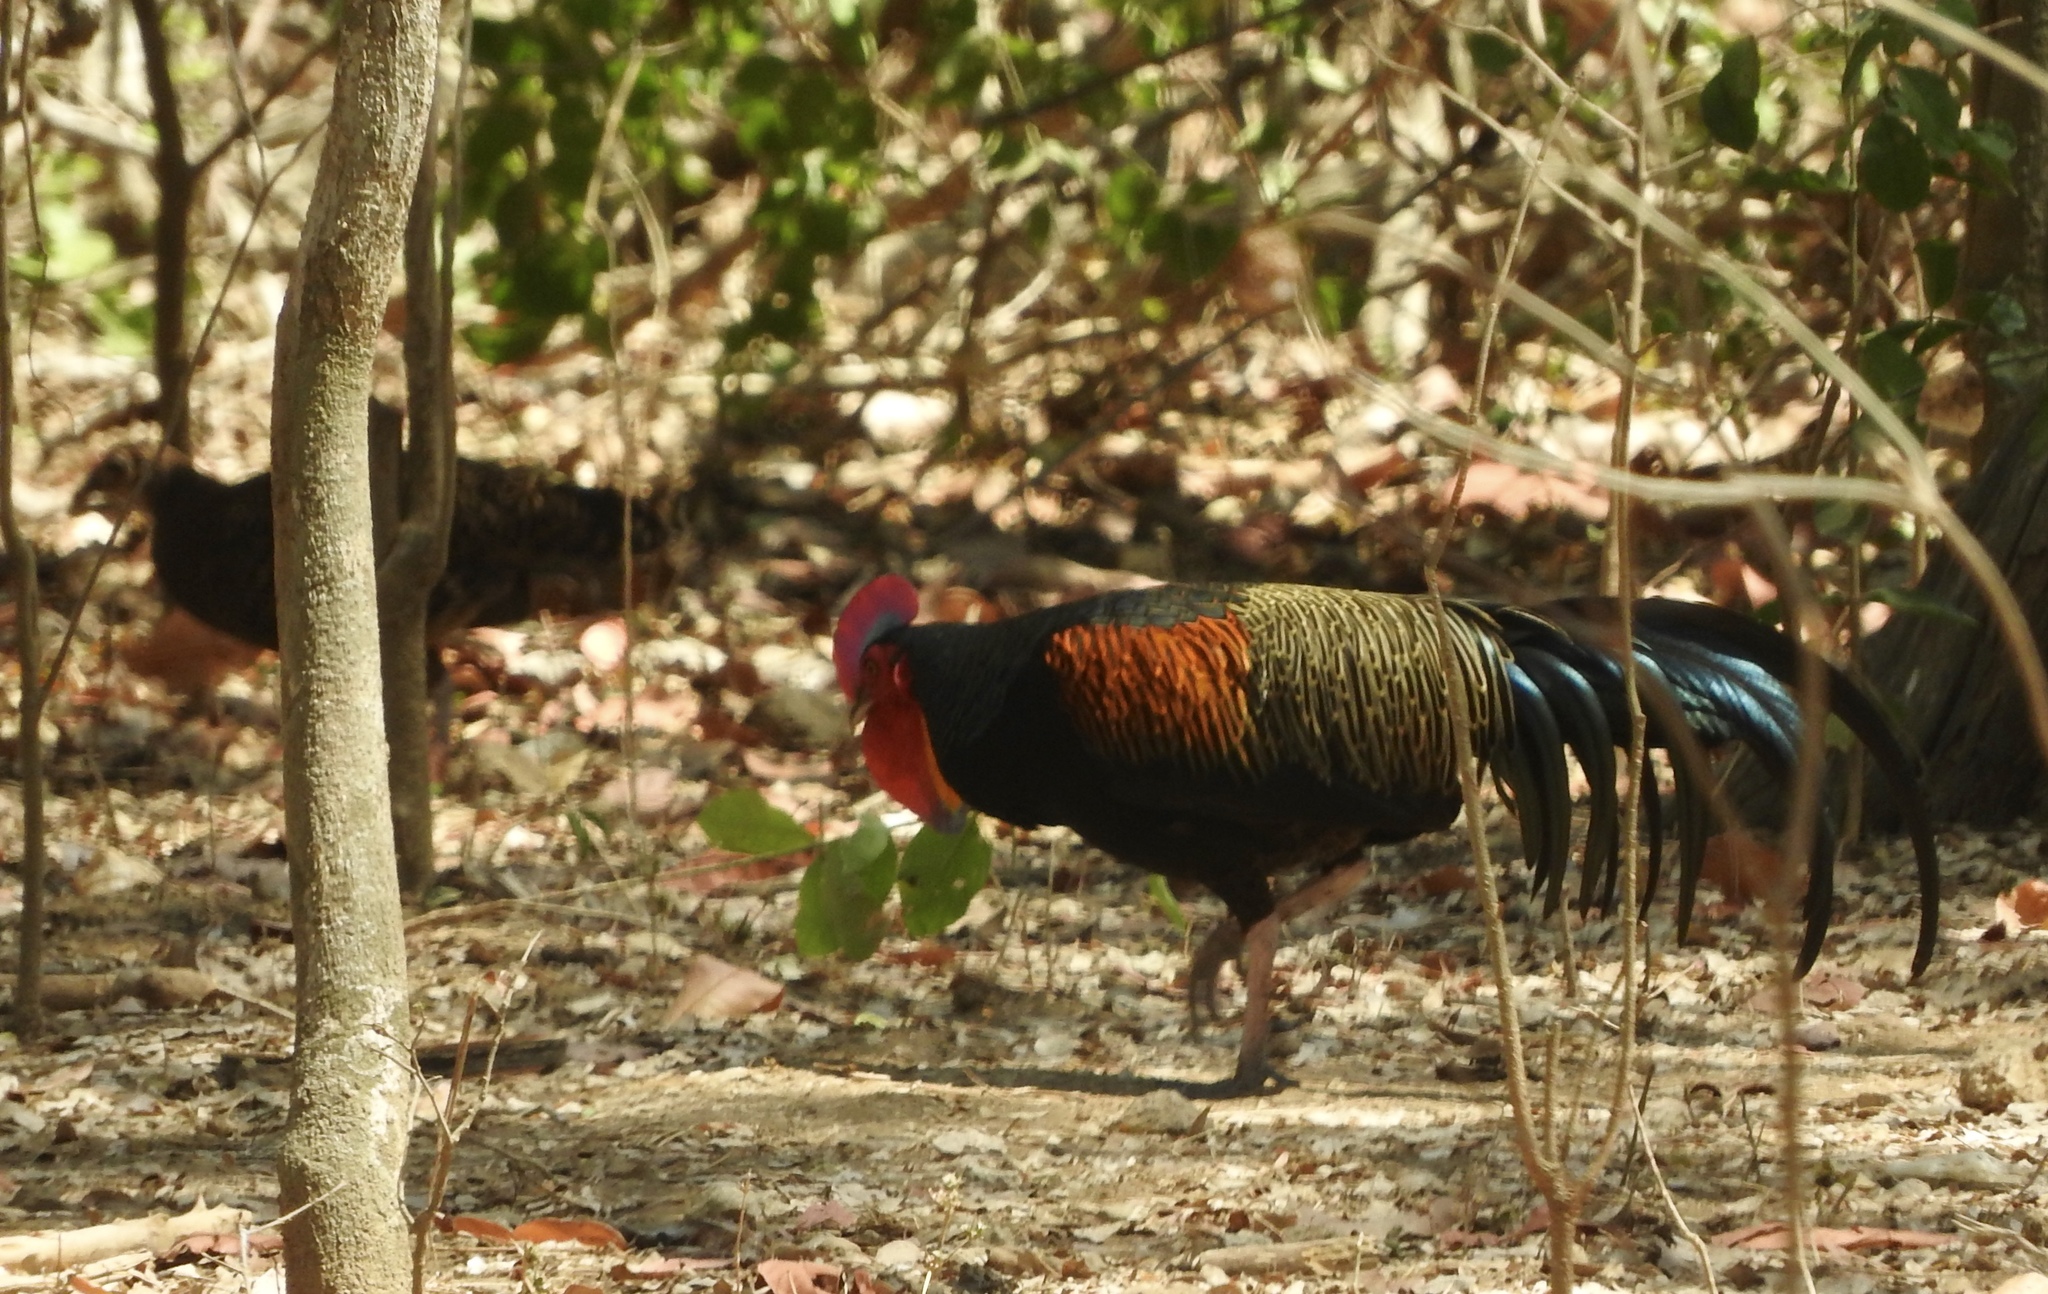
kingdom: Animalia
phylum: Chordata
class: Aves
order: Galliformes
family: Phasianidae
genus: Gallus
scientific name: Gallus varius
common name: Green junglefowl
